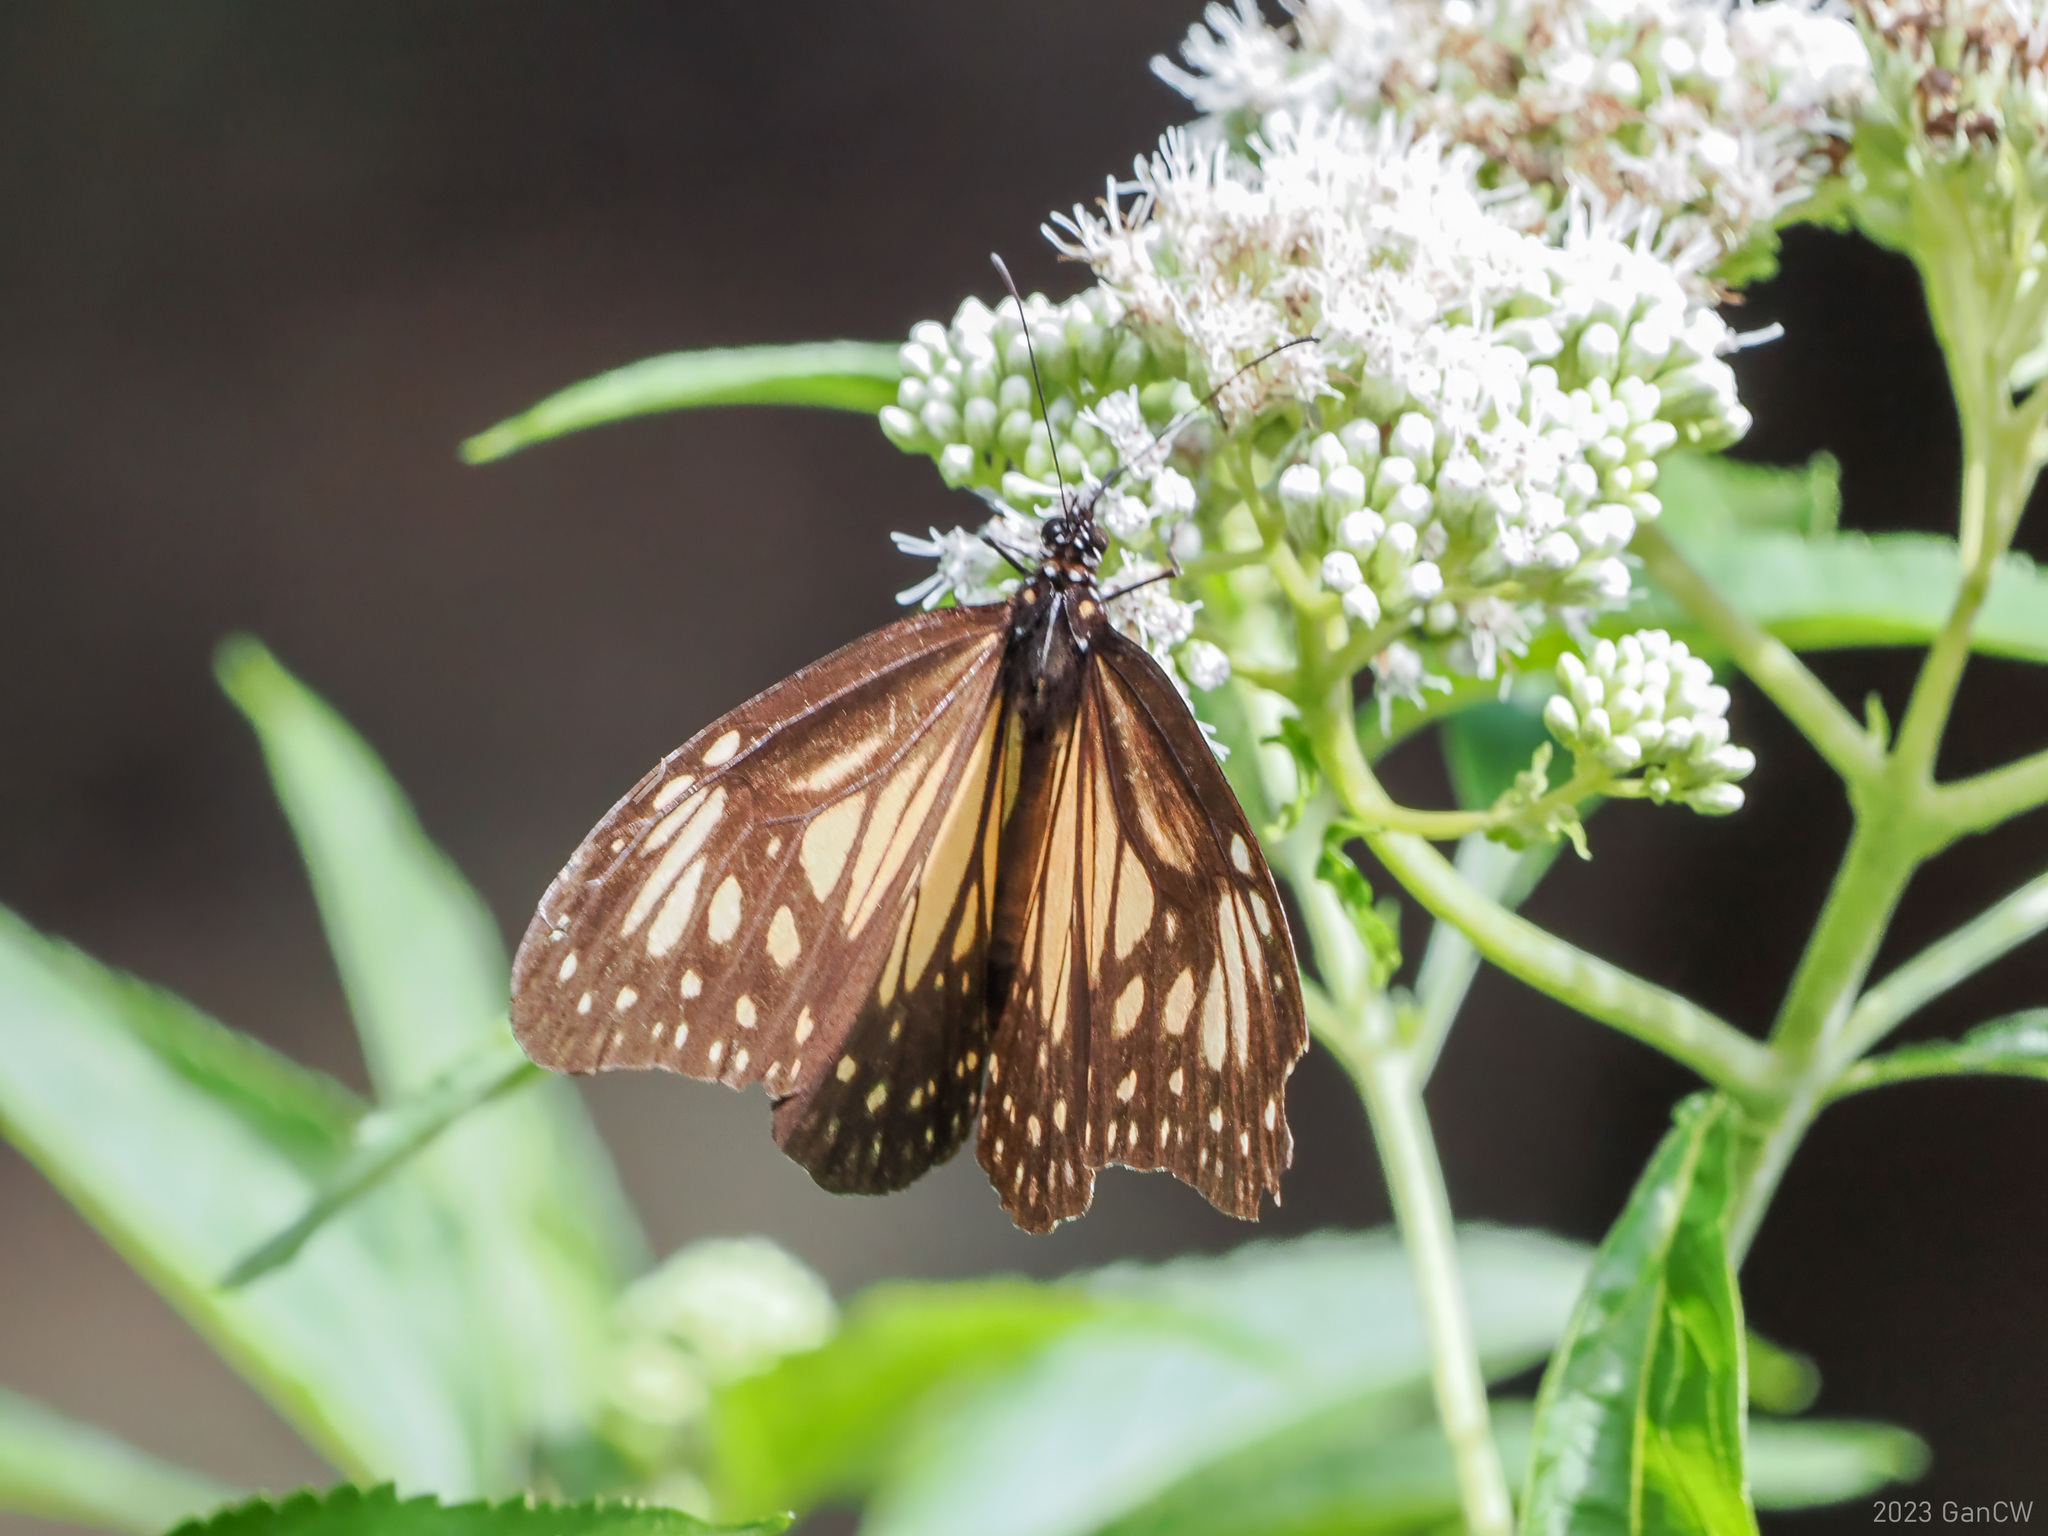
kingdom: Animalia
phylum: Arthropoda
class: Insecta
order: Lepidoptera
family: Nymphalidae
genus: Parantica
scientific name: Parantica menadensis
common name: Manado yellow tiger
